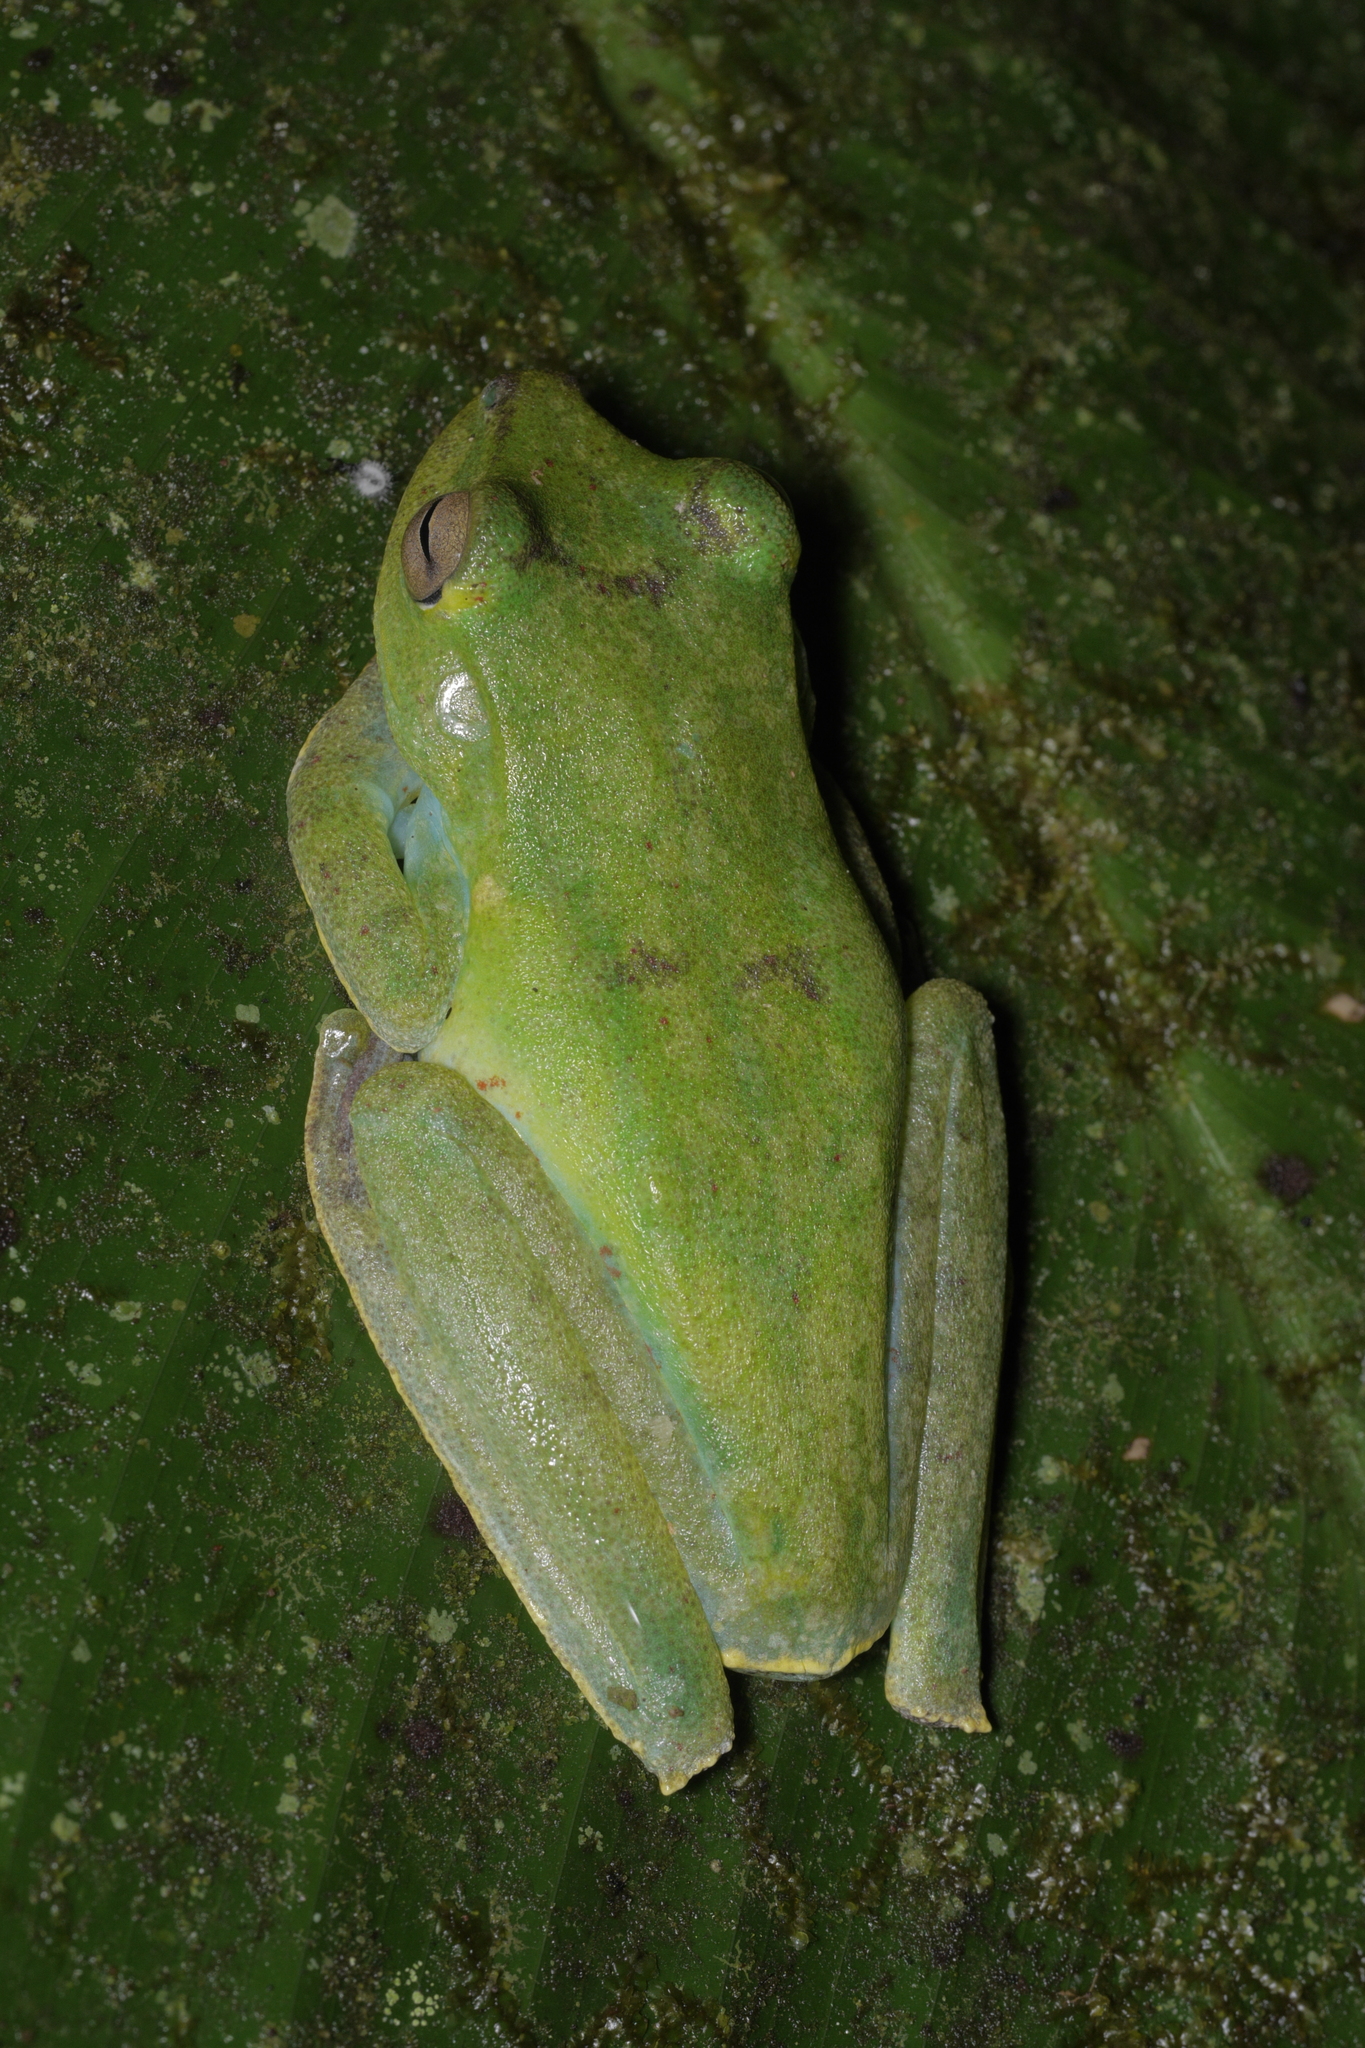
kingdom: Animalia
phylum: Chordata
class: Amphibia
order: Anura
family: Hylidae
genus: Boana
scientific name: Boana pellucens
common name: Palmar treefrog
